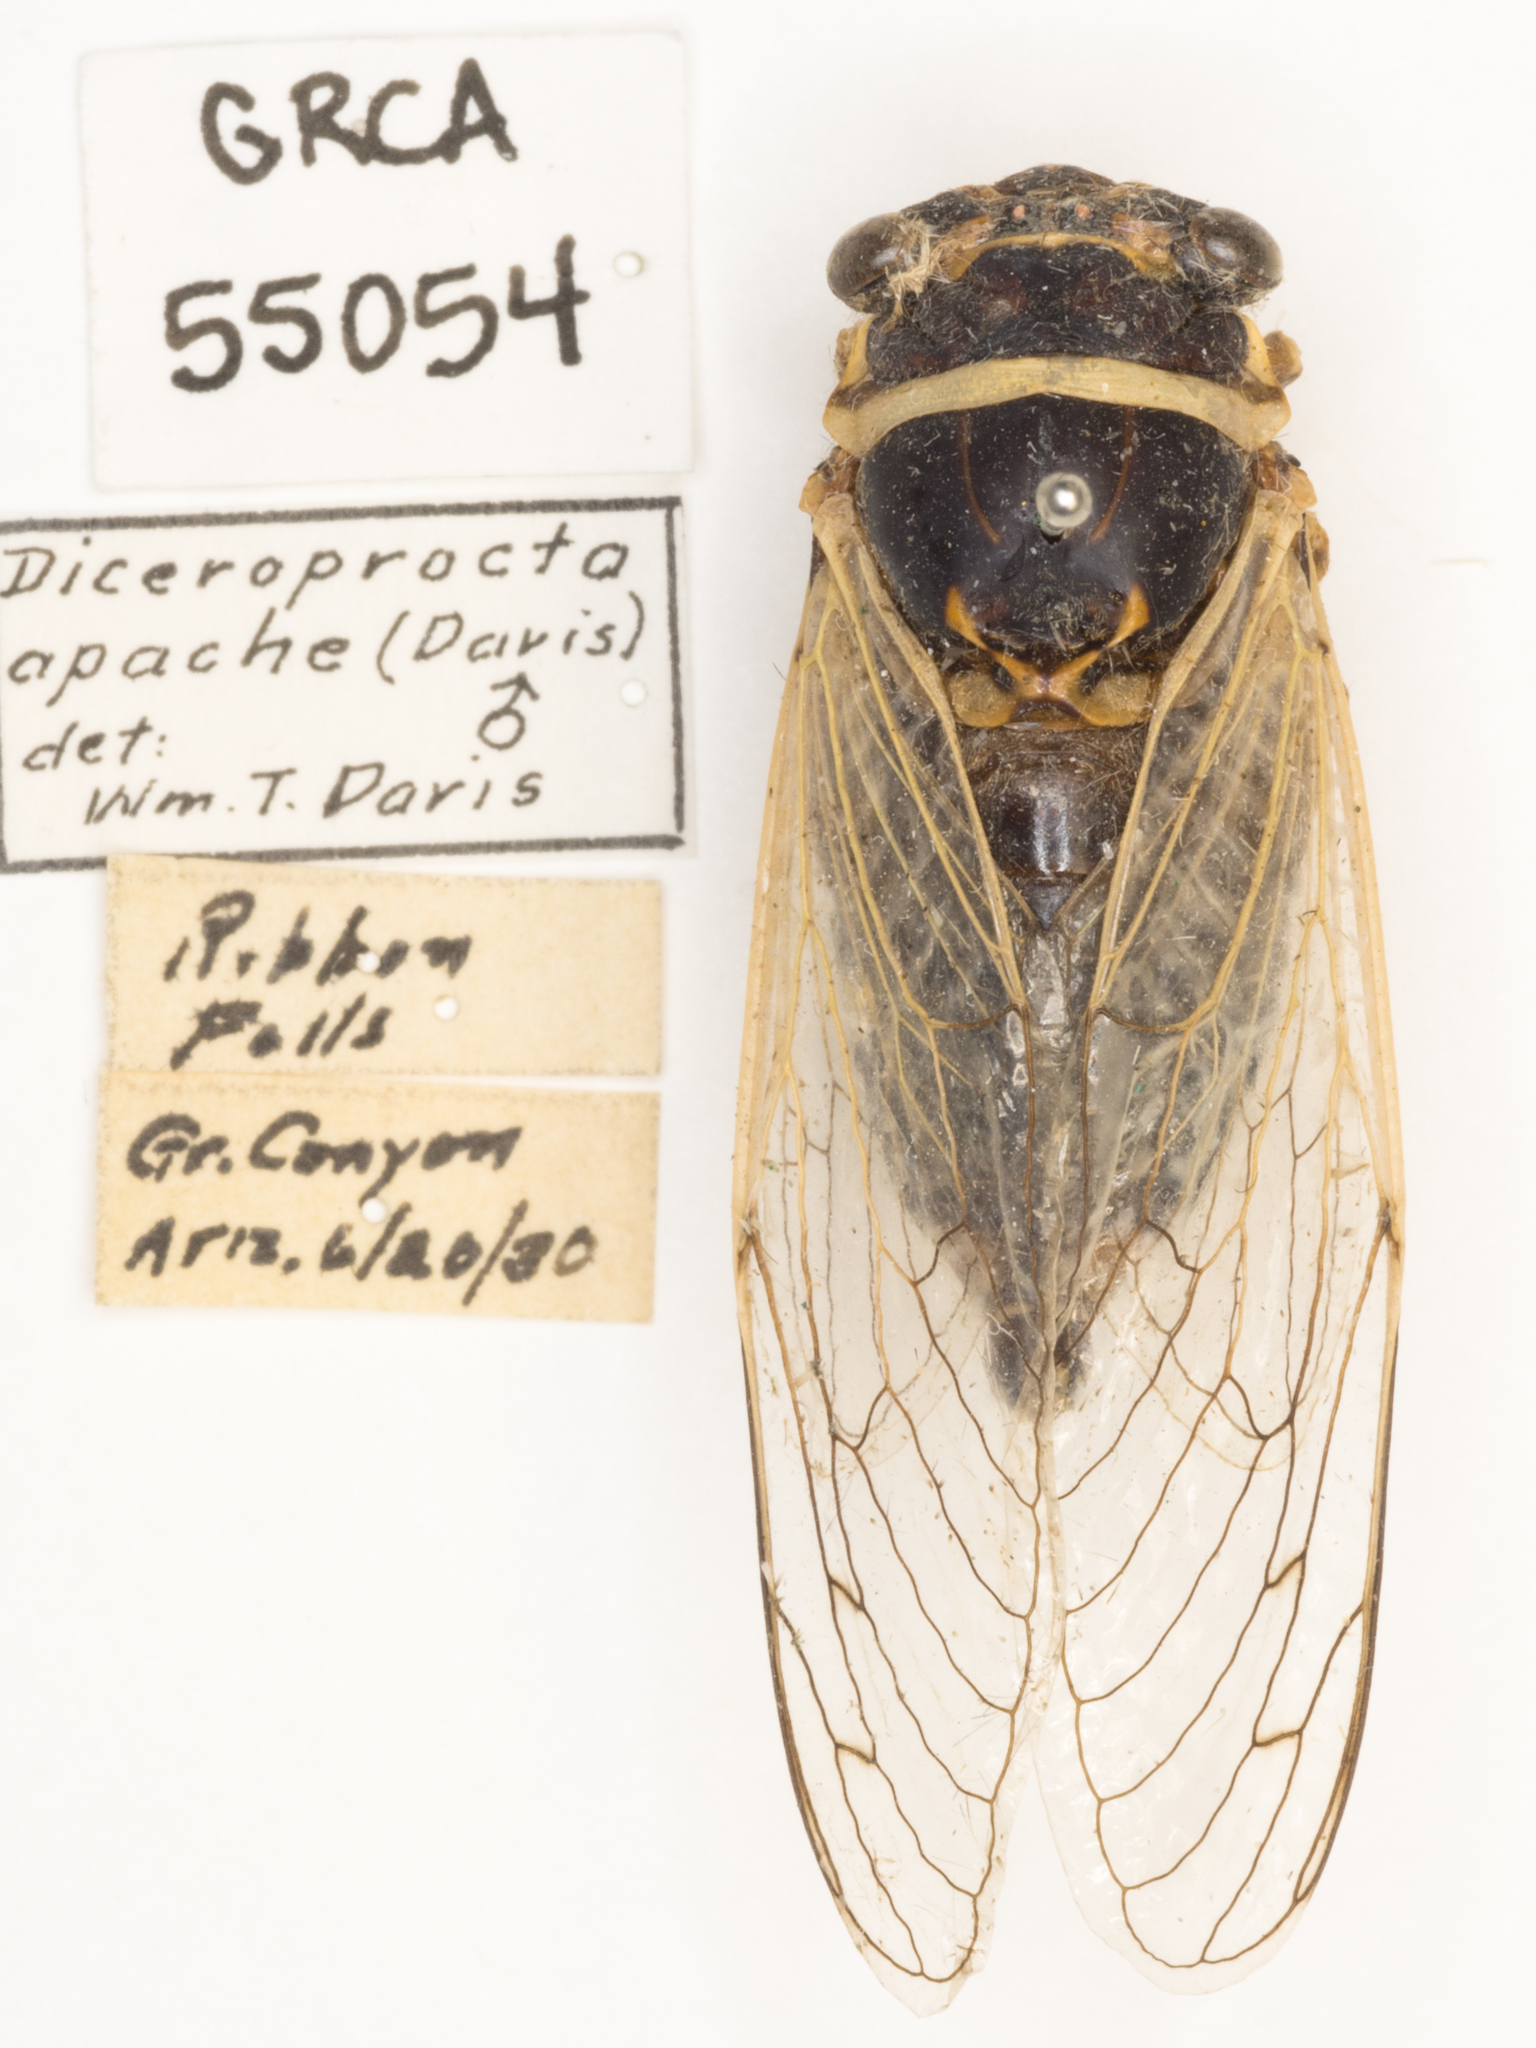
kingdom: Animalia
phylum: Arthropoda
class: Insecta
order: Hemiptera
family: Cicadidae
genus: Diceroprocta
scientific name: Diceroprocta apache
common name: Desert cicada
